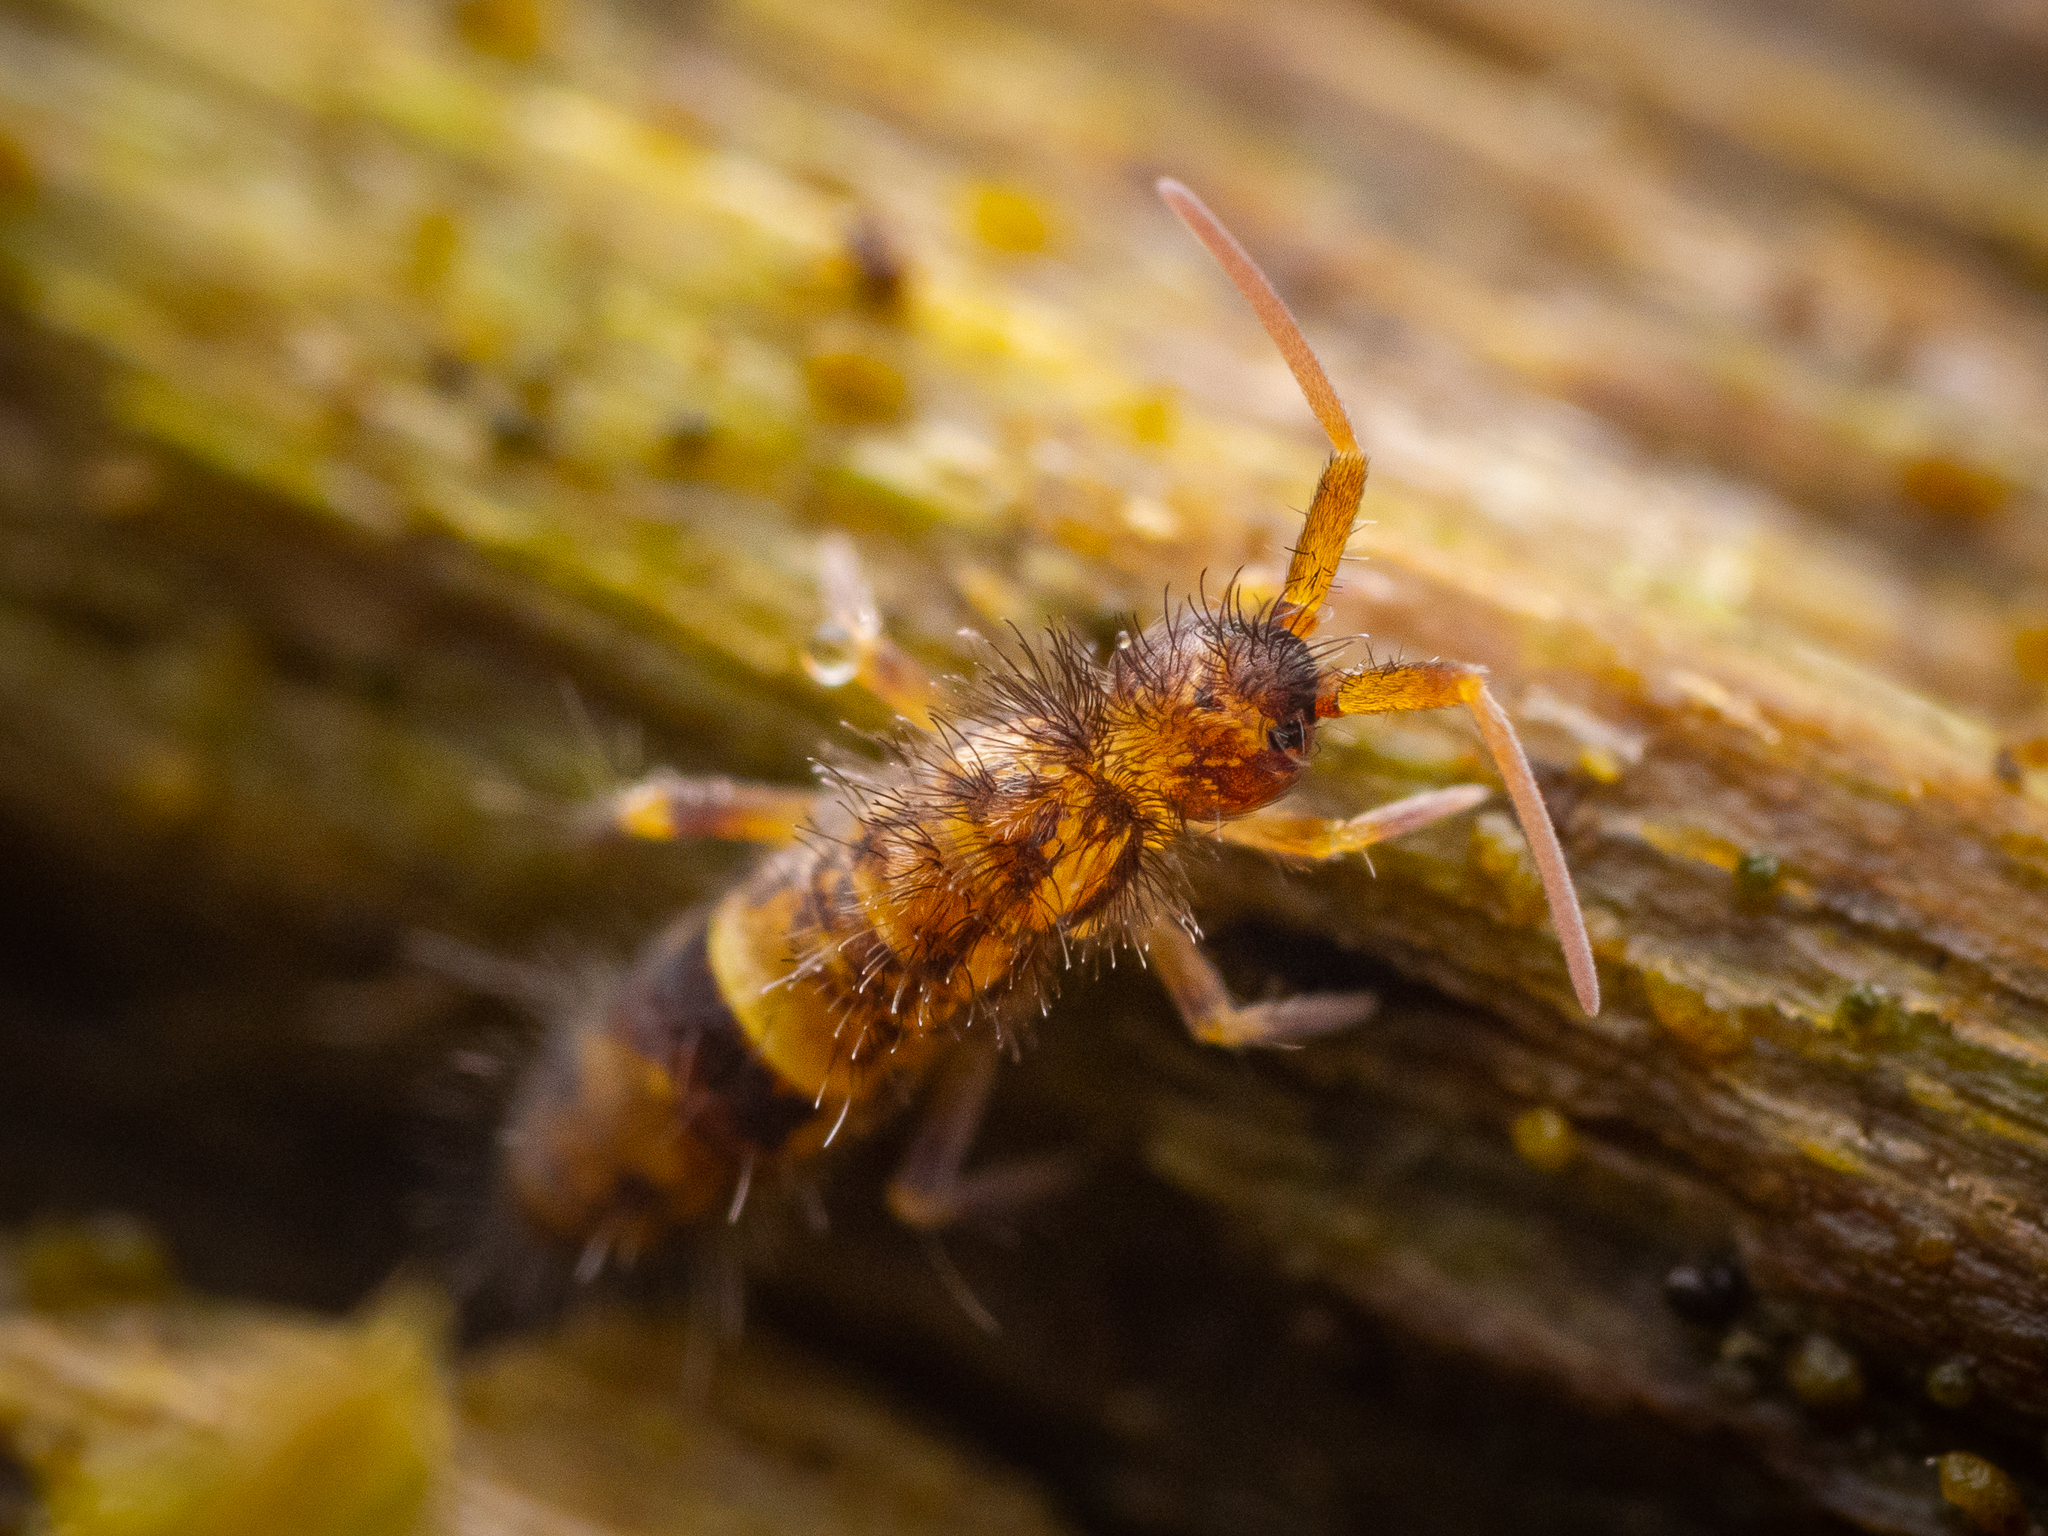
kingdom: Animalia
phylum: Arthropoda
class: Collembola
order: Entomobryomorpha
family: Orchesellidae
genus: Orchesella
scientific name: Orchesella cincta
